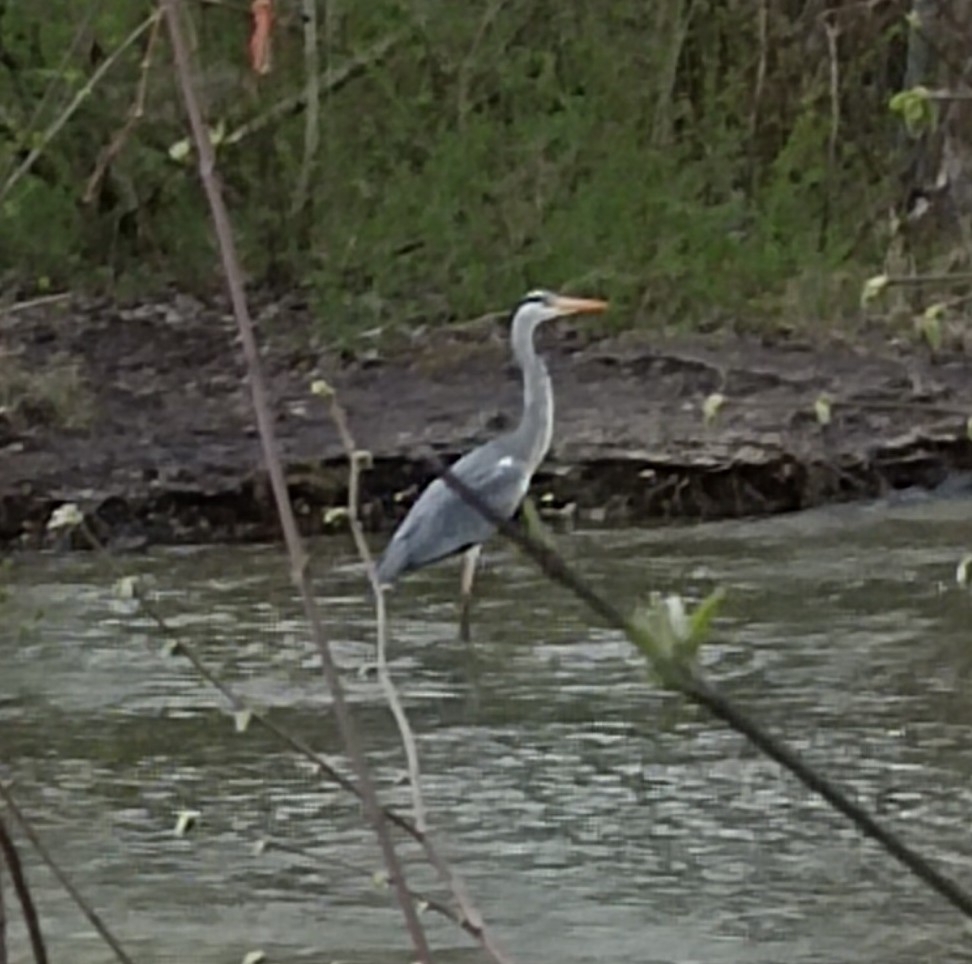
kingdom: Animalia
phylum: Chordata
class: Aves
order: Pelecaniformes
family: Ardeidae
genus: Ardea
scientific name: Ardea cinerea
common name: Grey heron
